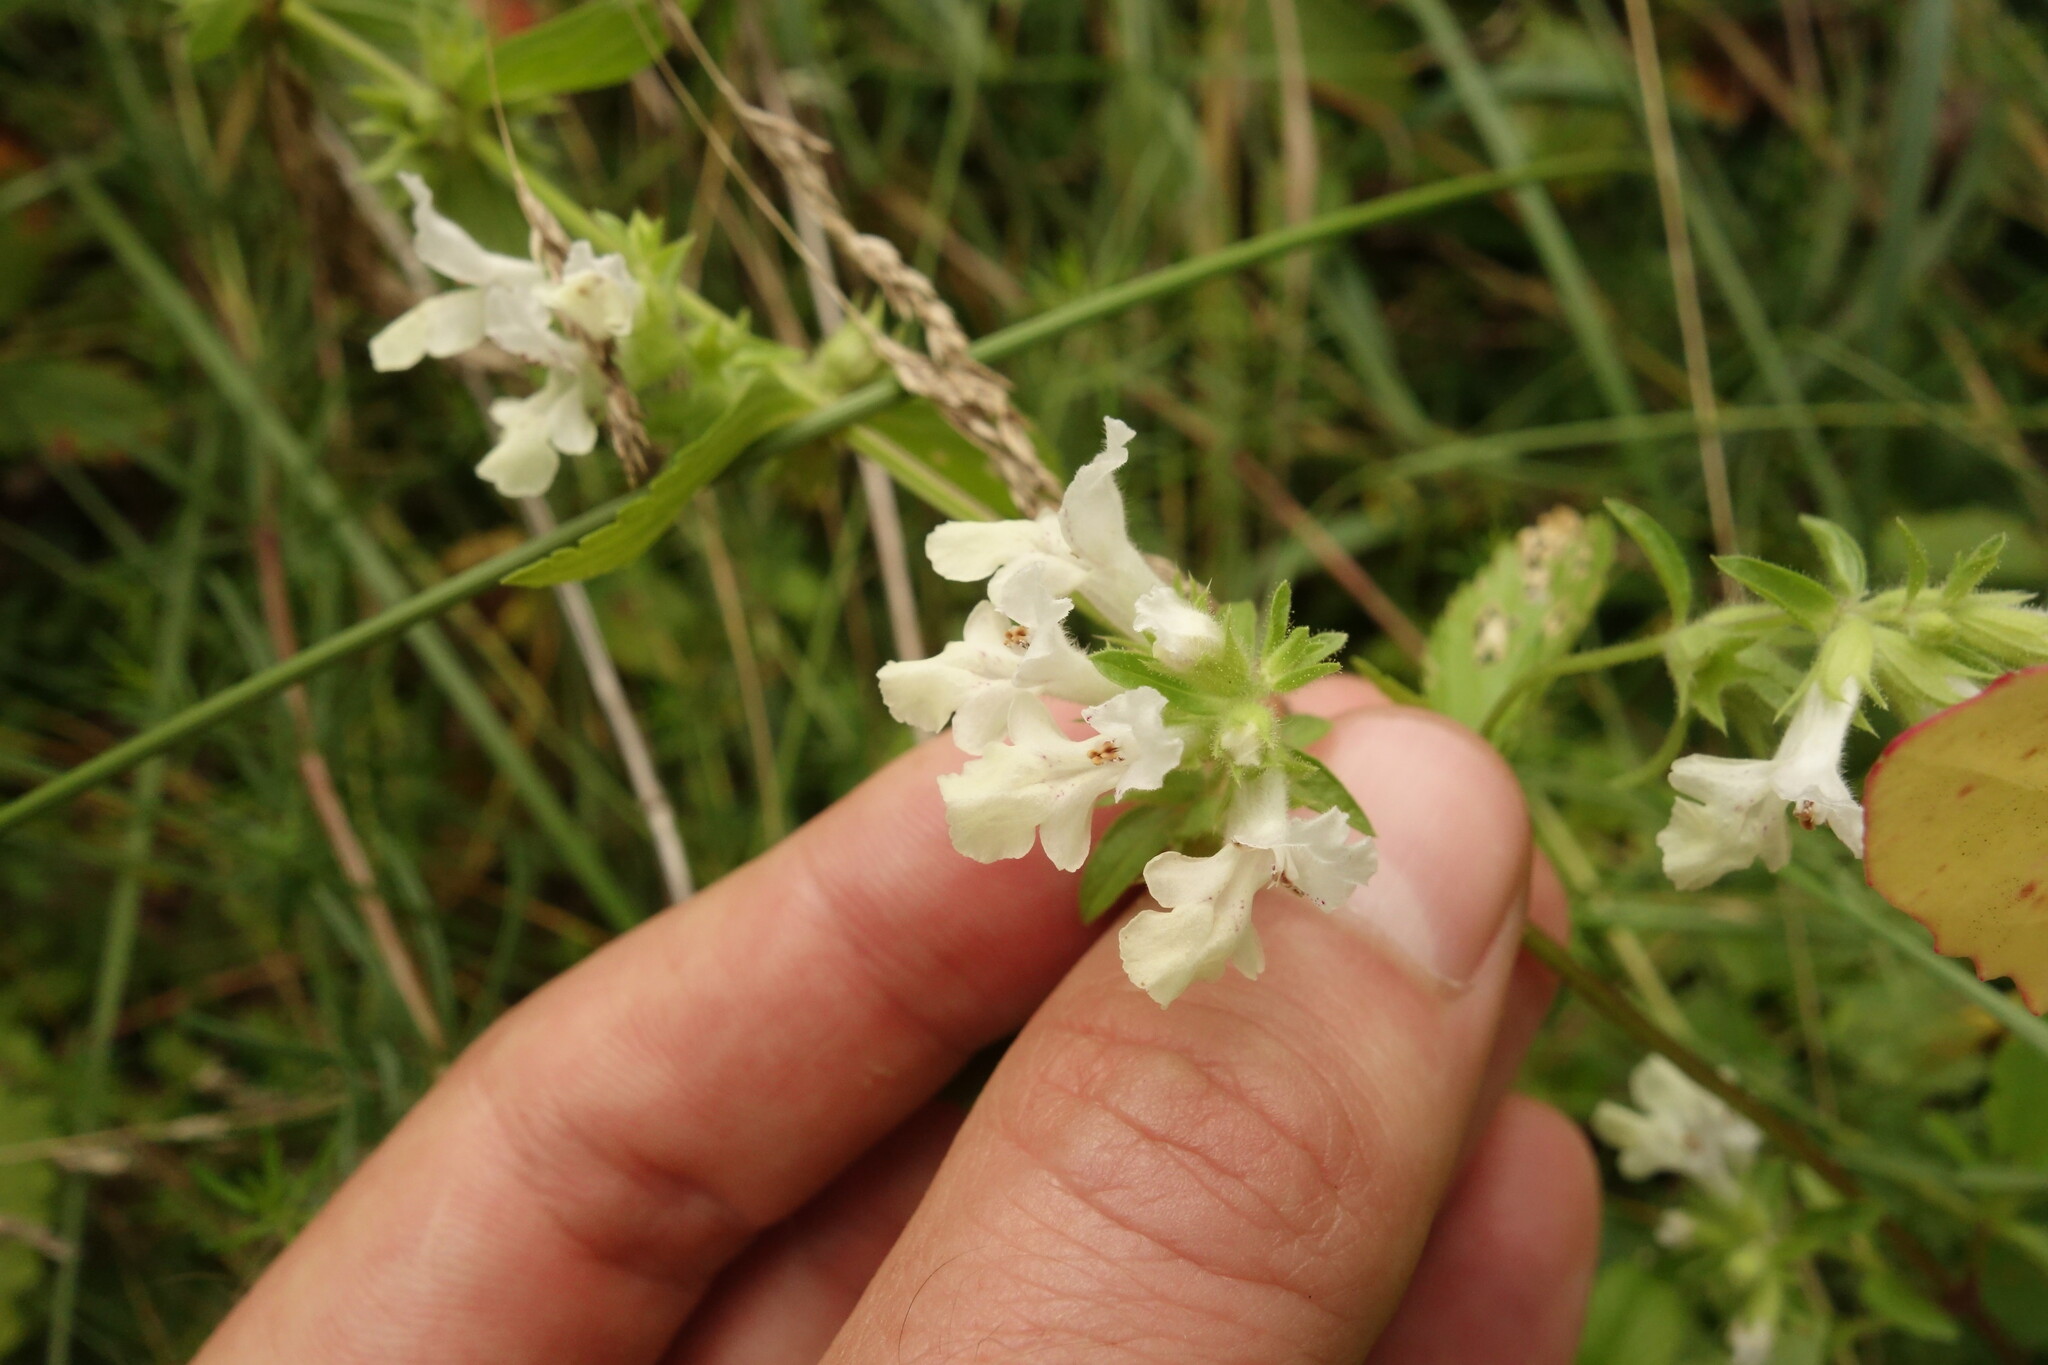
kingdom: Plantae
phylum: Tracheophyta
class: Magnoliopsida
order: Lamiales
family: Lamiaceae
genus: Stachys
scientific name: Stachys annua
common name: Annual yellow-woundwort
